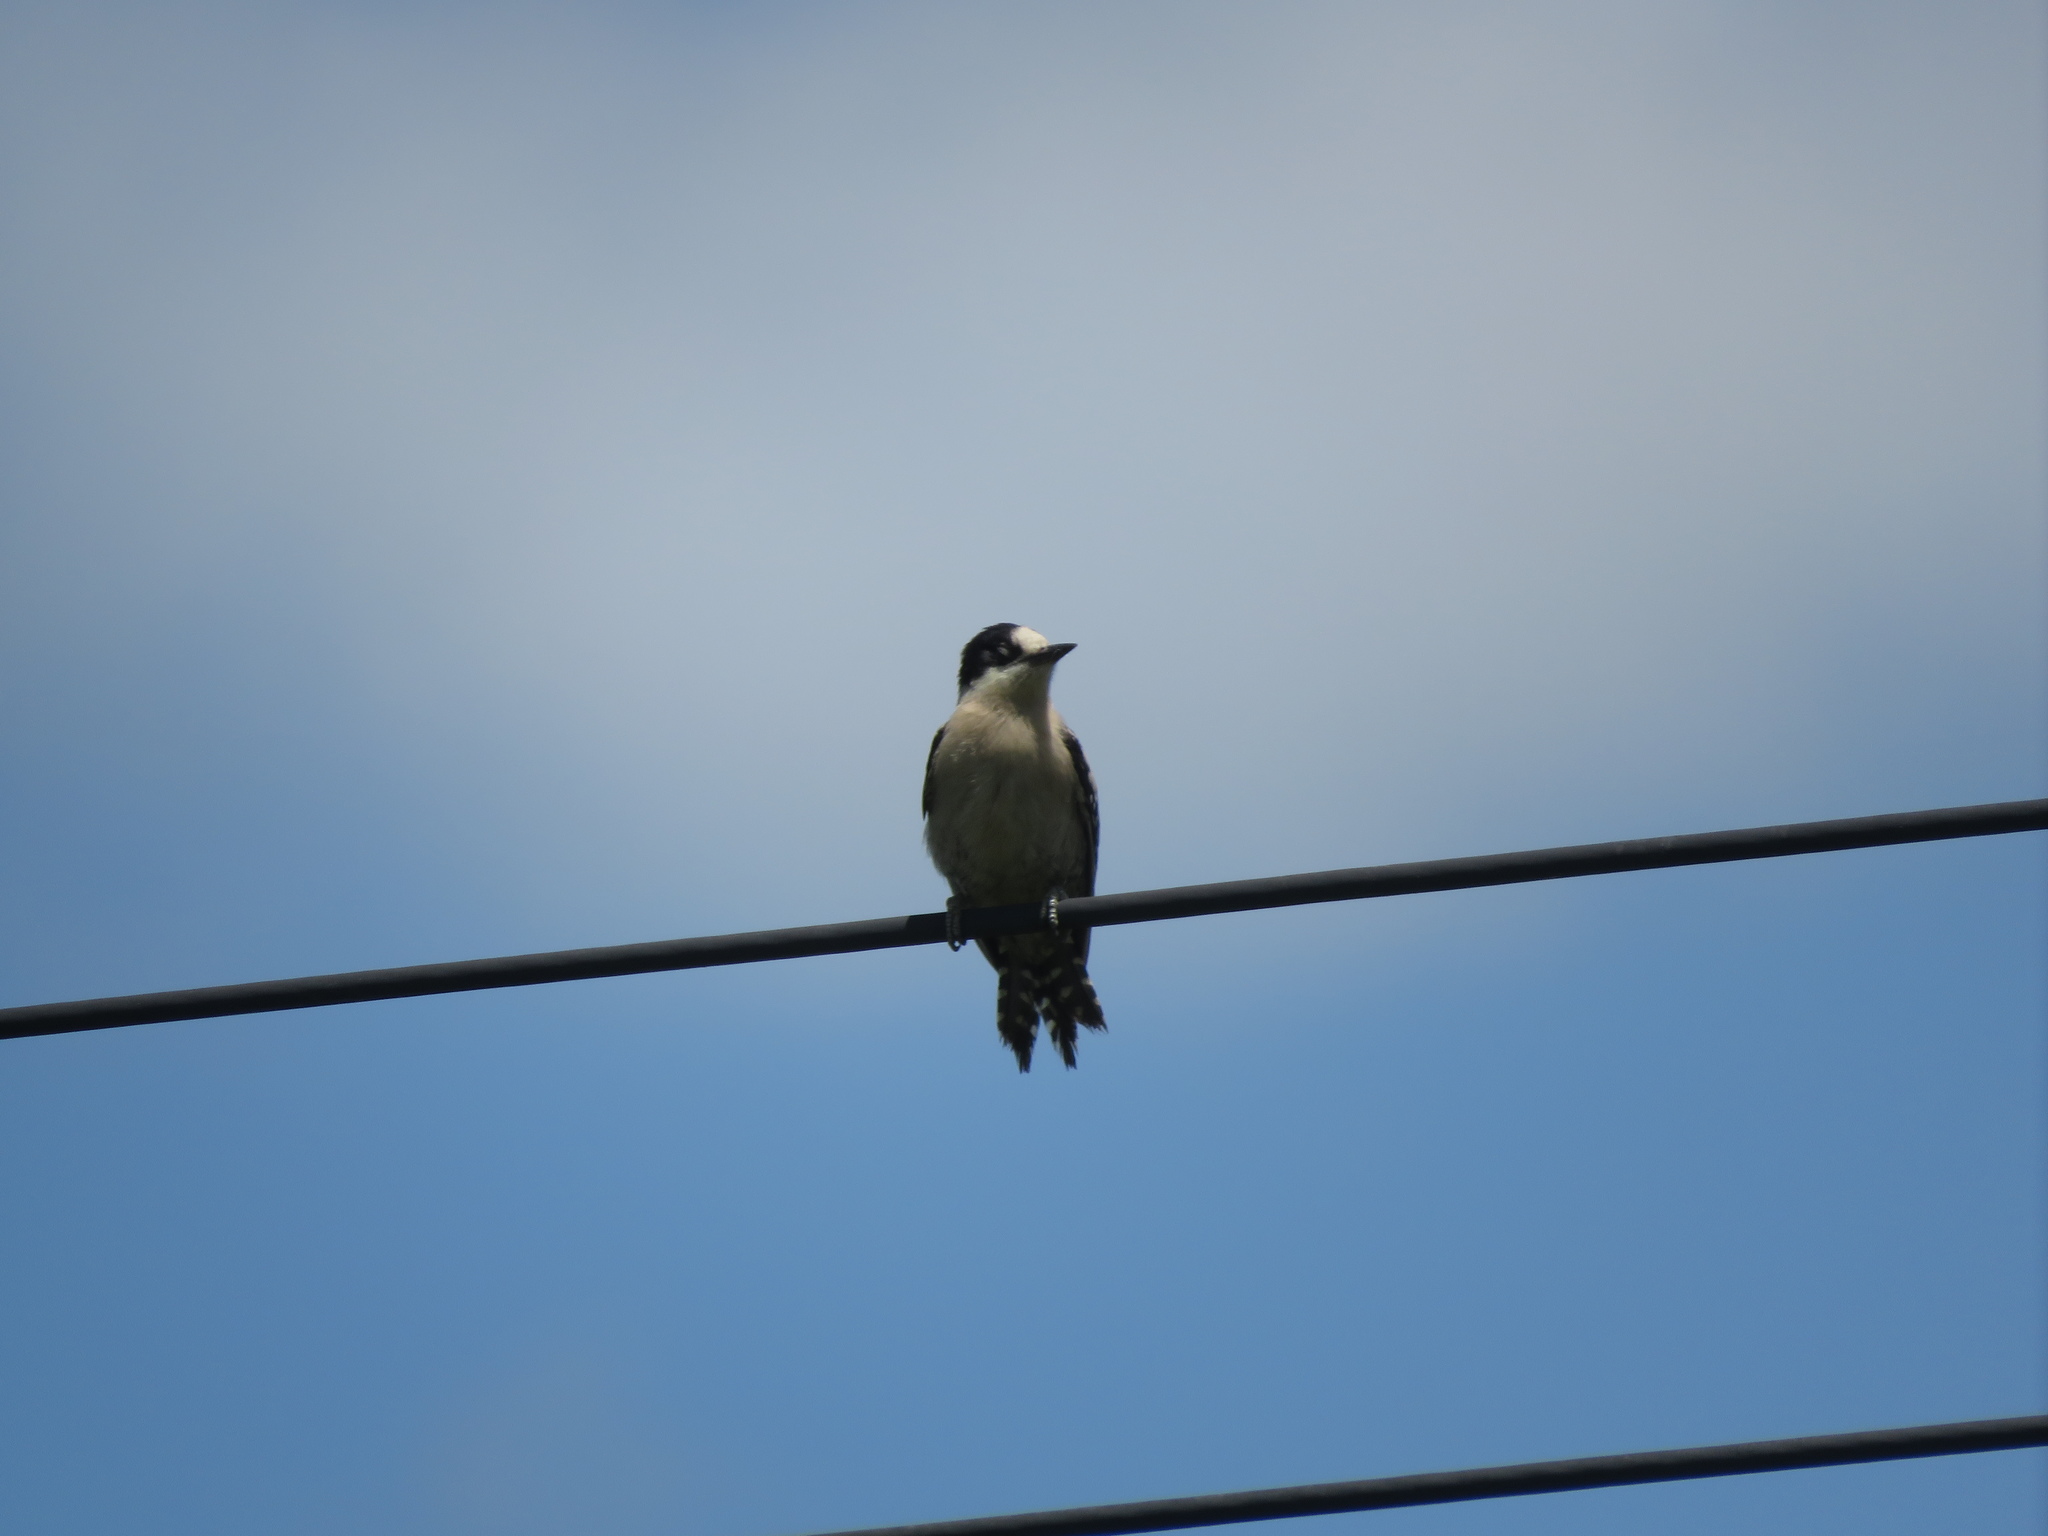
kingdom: Animalia
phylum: Chordata
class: Aves
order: Piciformes
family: Picidae
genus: Melanerpes
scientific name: Melanerpes cactorum
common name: White-fronted woodpecker
